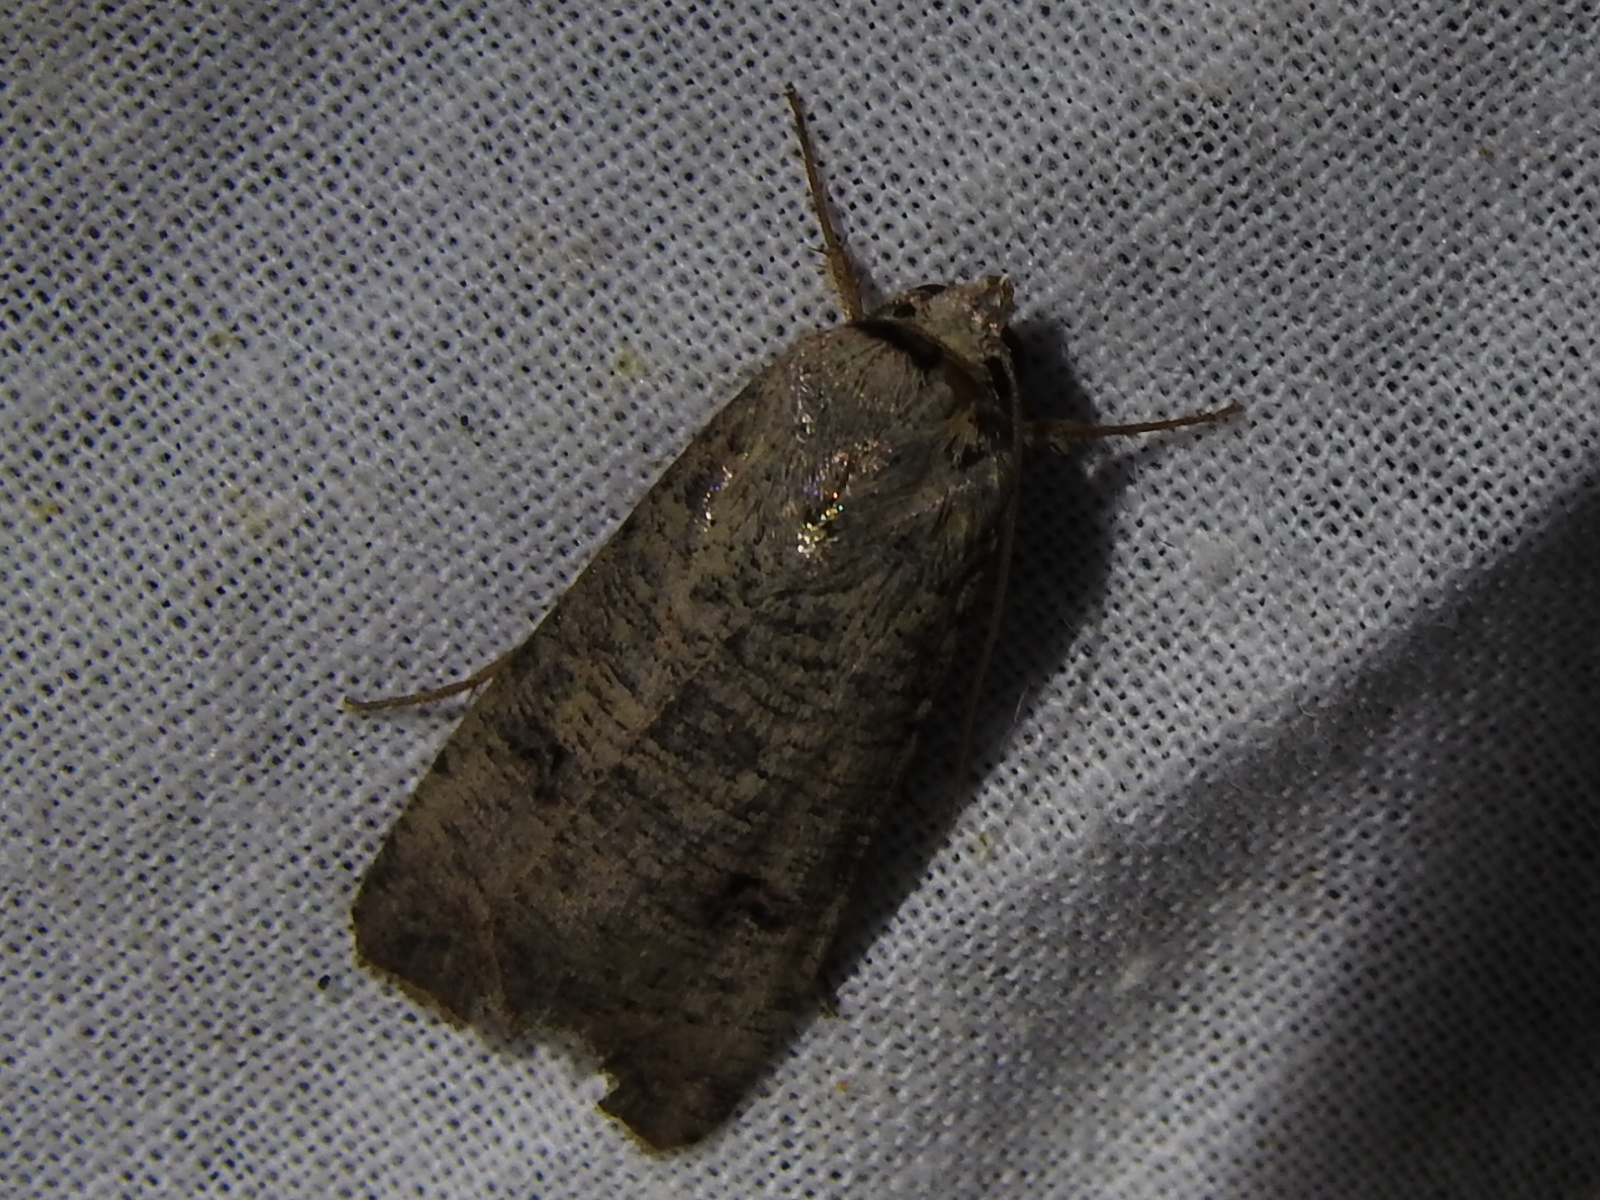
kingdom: Animalia
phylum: Arthropoda
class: Insecta
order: Lepidoptera
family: Noctuidae
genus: Anicla
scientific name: Anicla infecta
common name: Green cutworm
